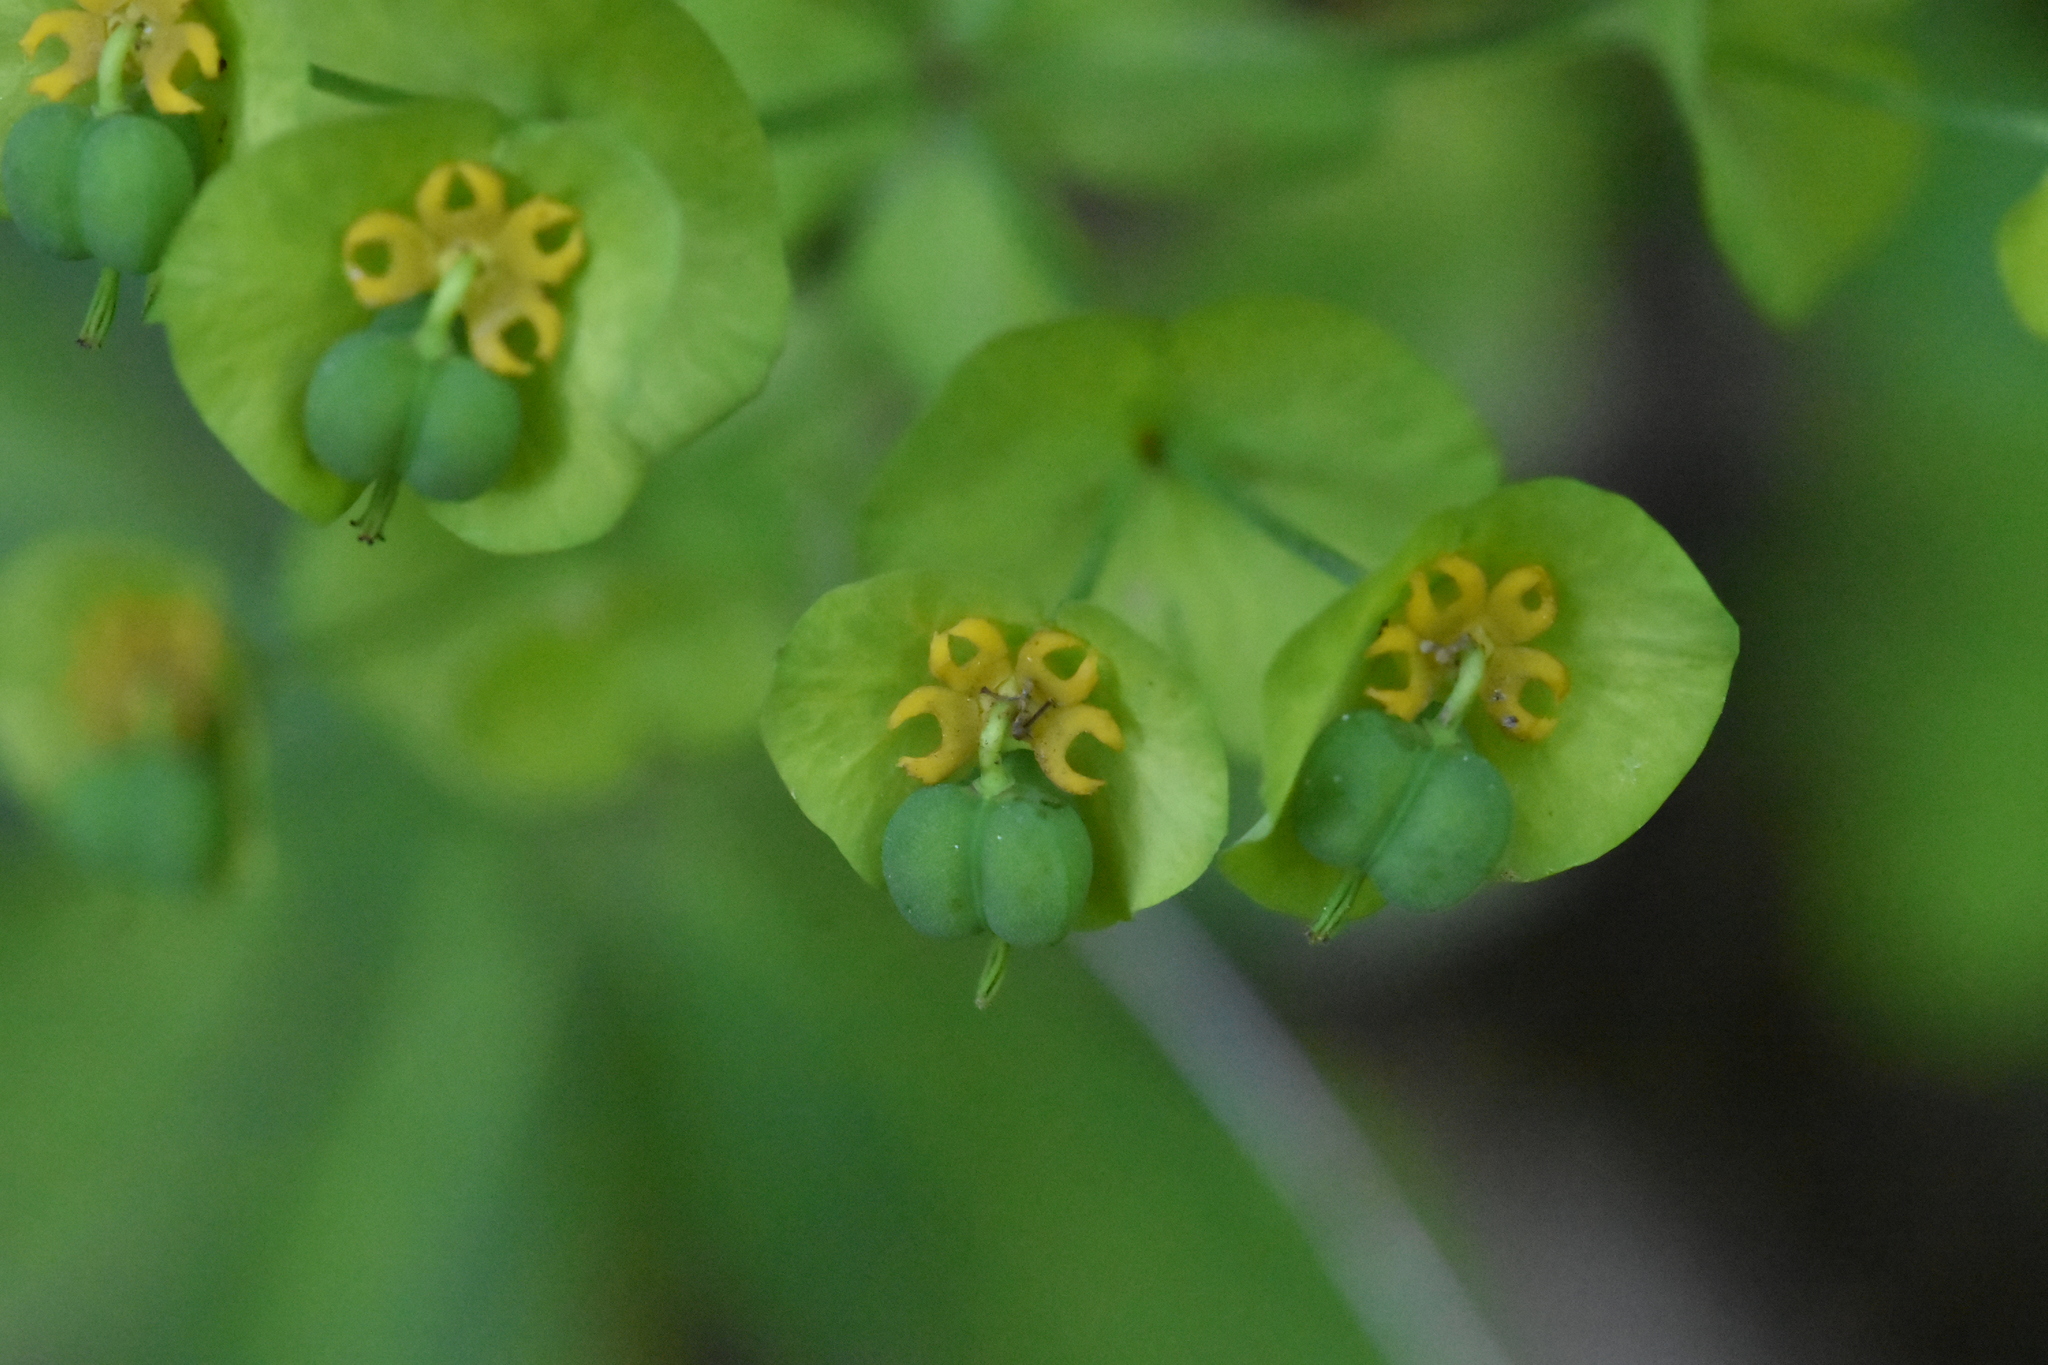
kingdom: Plantae
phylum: Tracheophyta
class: Magnoliopsida
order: Malpighiales
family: Euphorbiaceae
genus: Euphorbia
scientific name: Euphorbia amygdaloides
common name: Wood spurge
